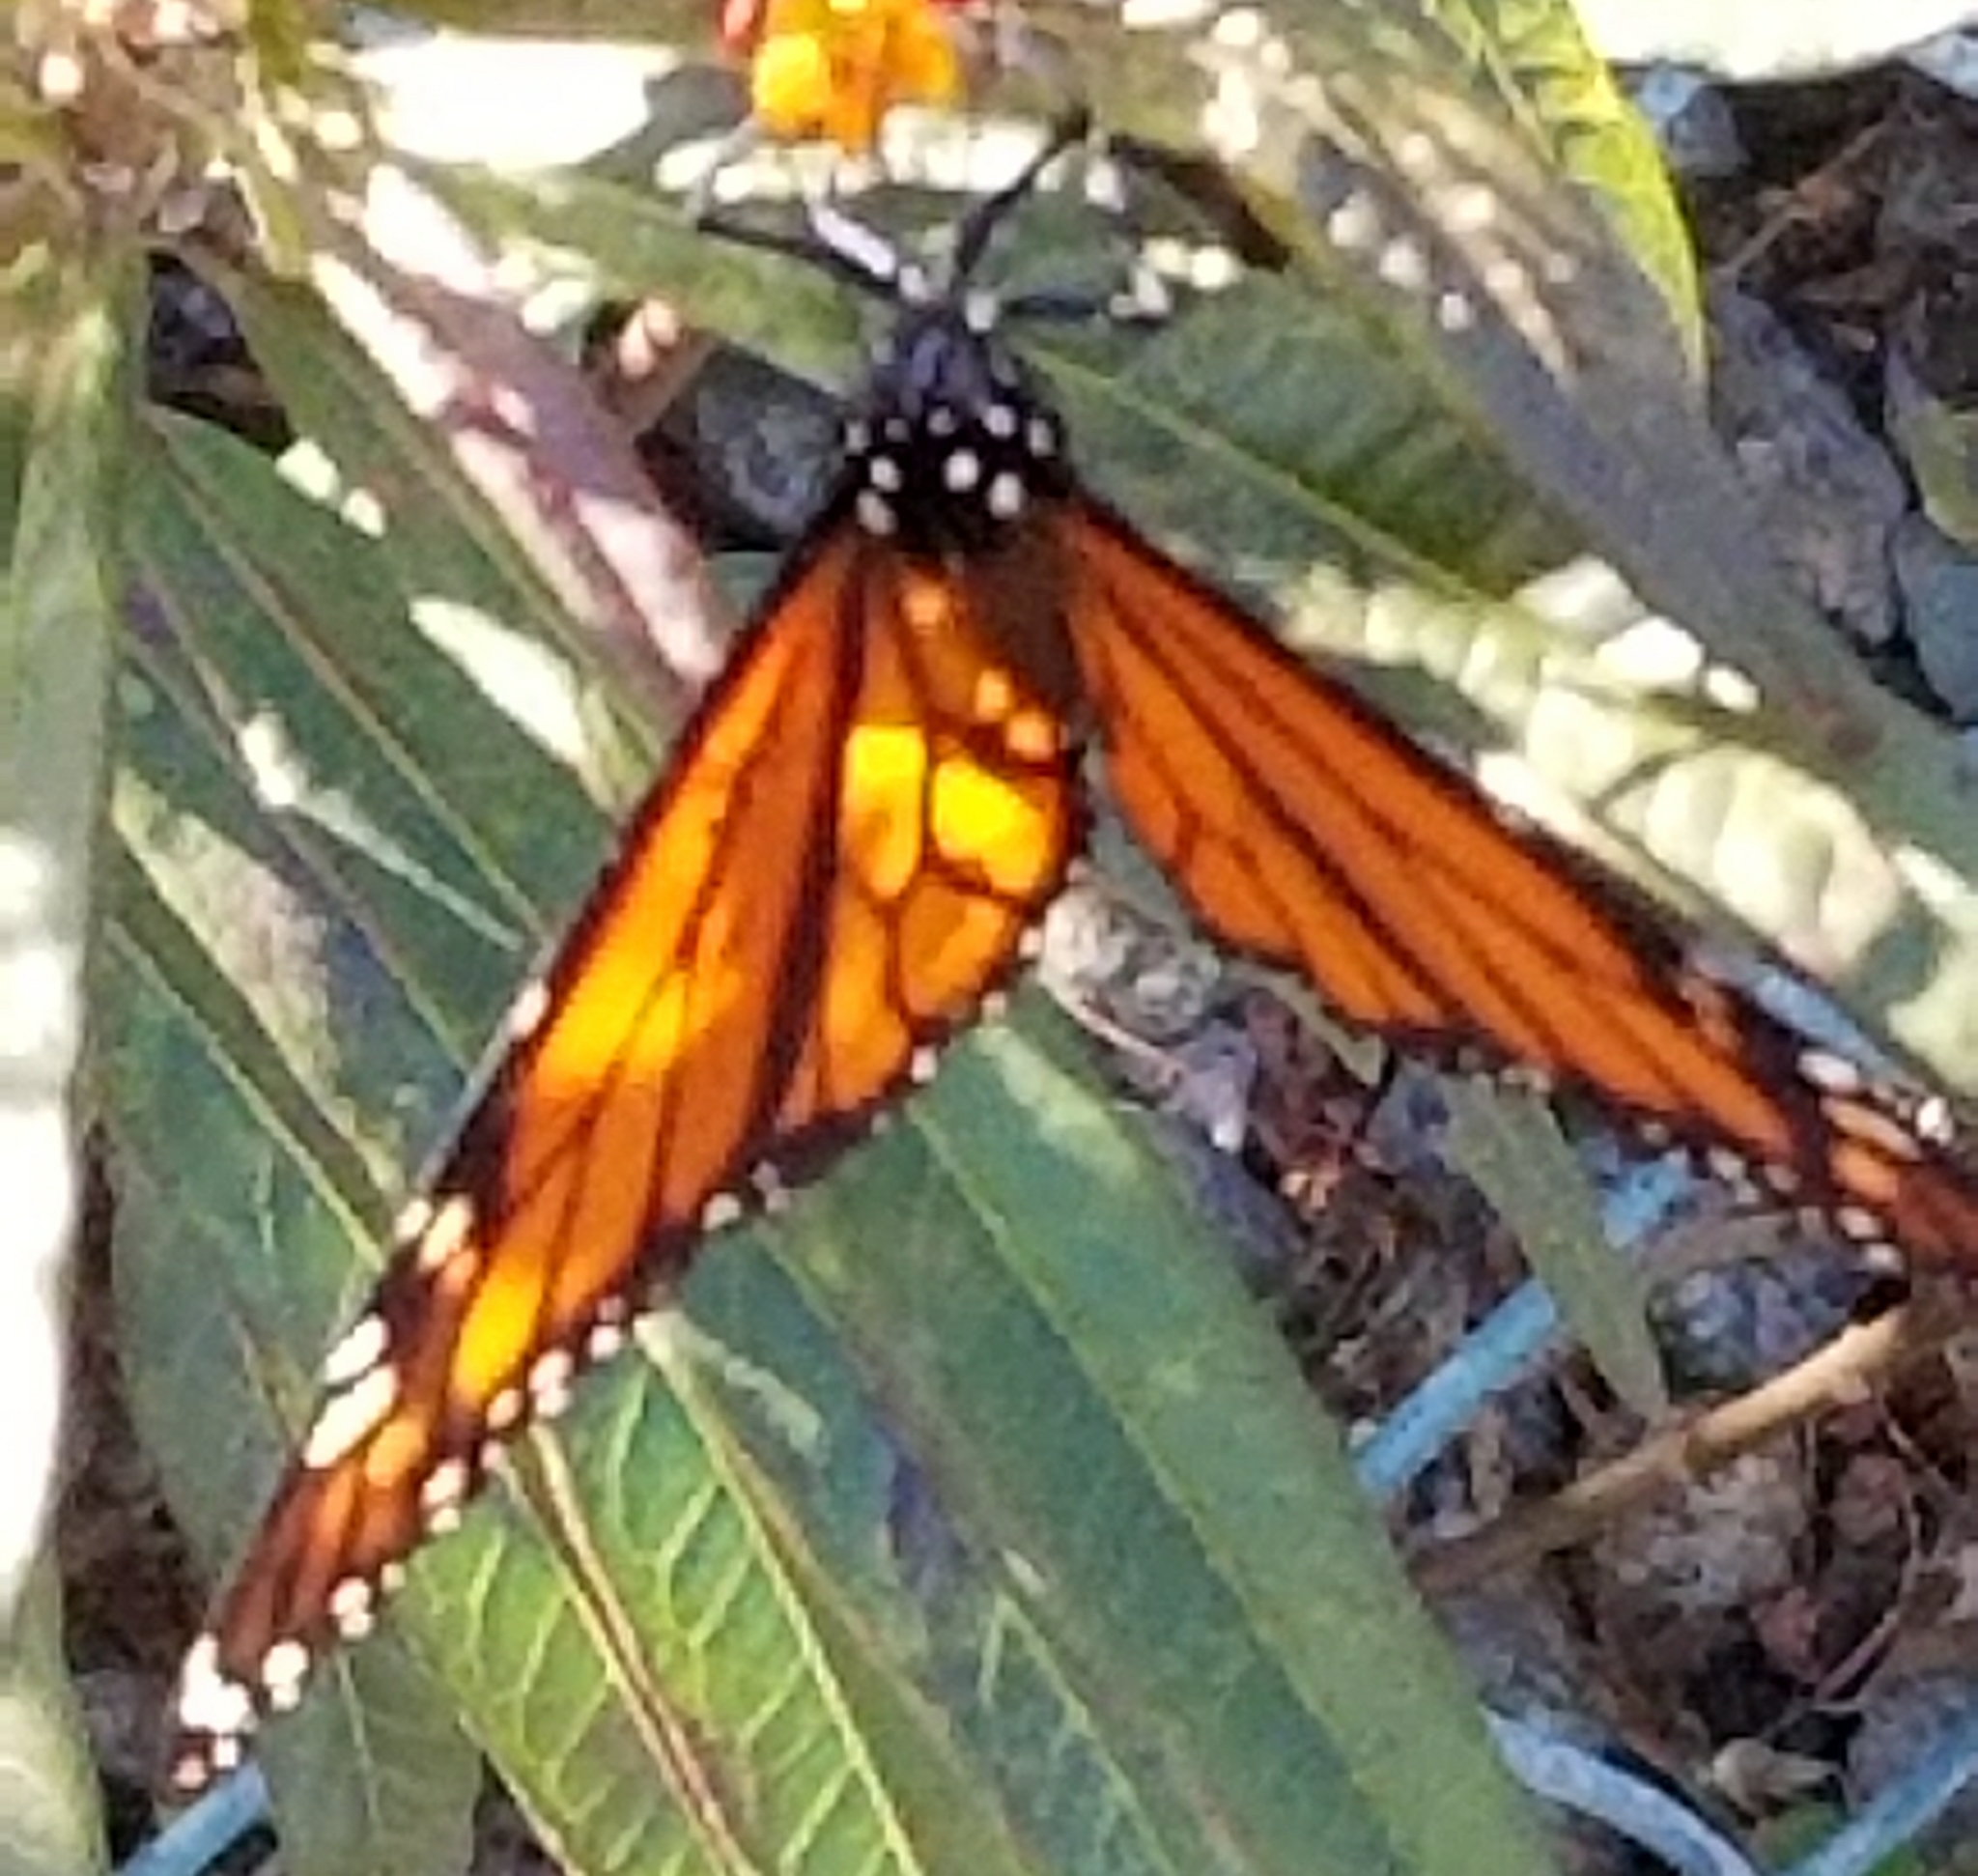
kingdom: Animalia
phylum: Arthropoda
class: Insecta
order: Lepidoptera
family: Nymphalidae
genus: Danaus
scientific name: Danaus plexippus
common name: Monarch
